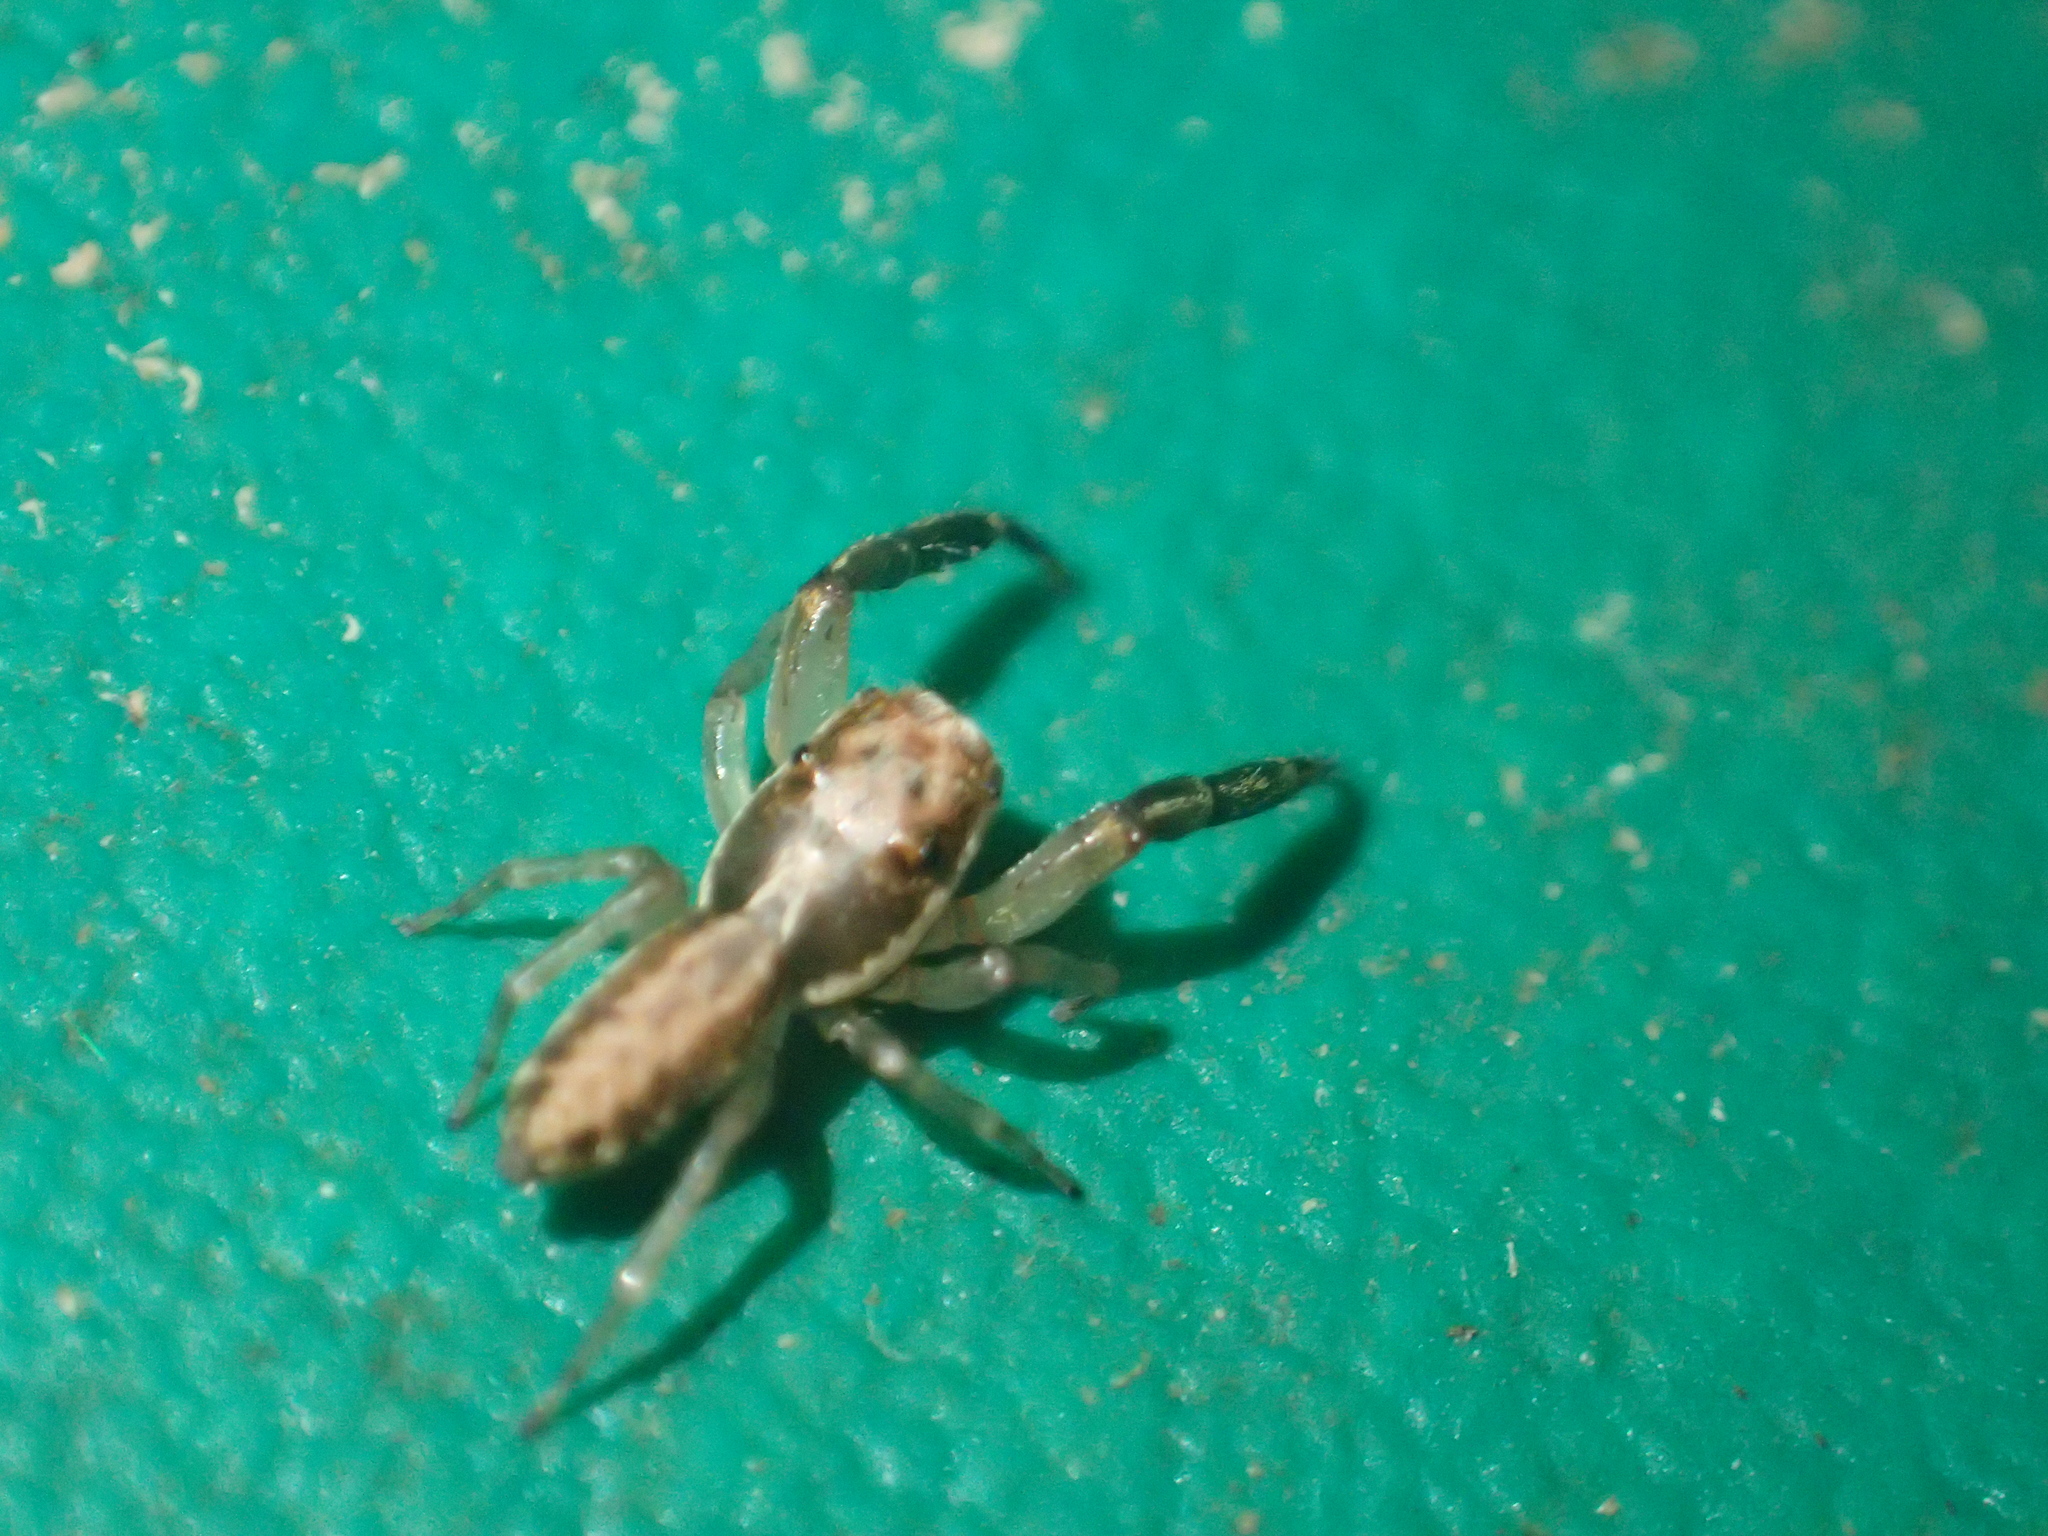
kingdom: Animalia
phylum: Arthropoda
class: Arachnida
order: Araneae
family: Salticidae
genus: Trite
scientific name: Trite mustilina
